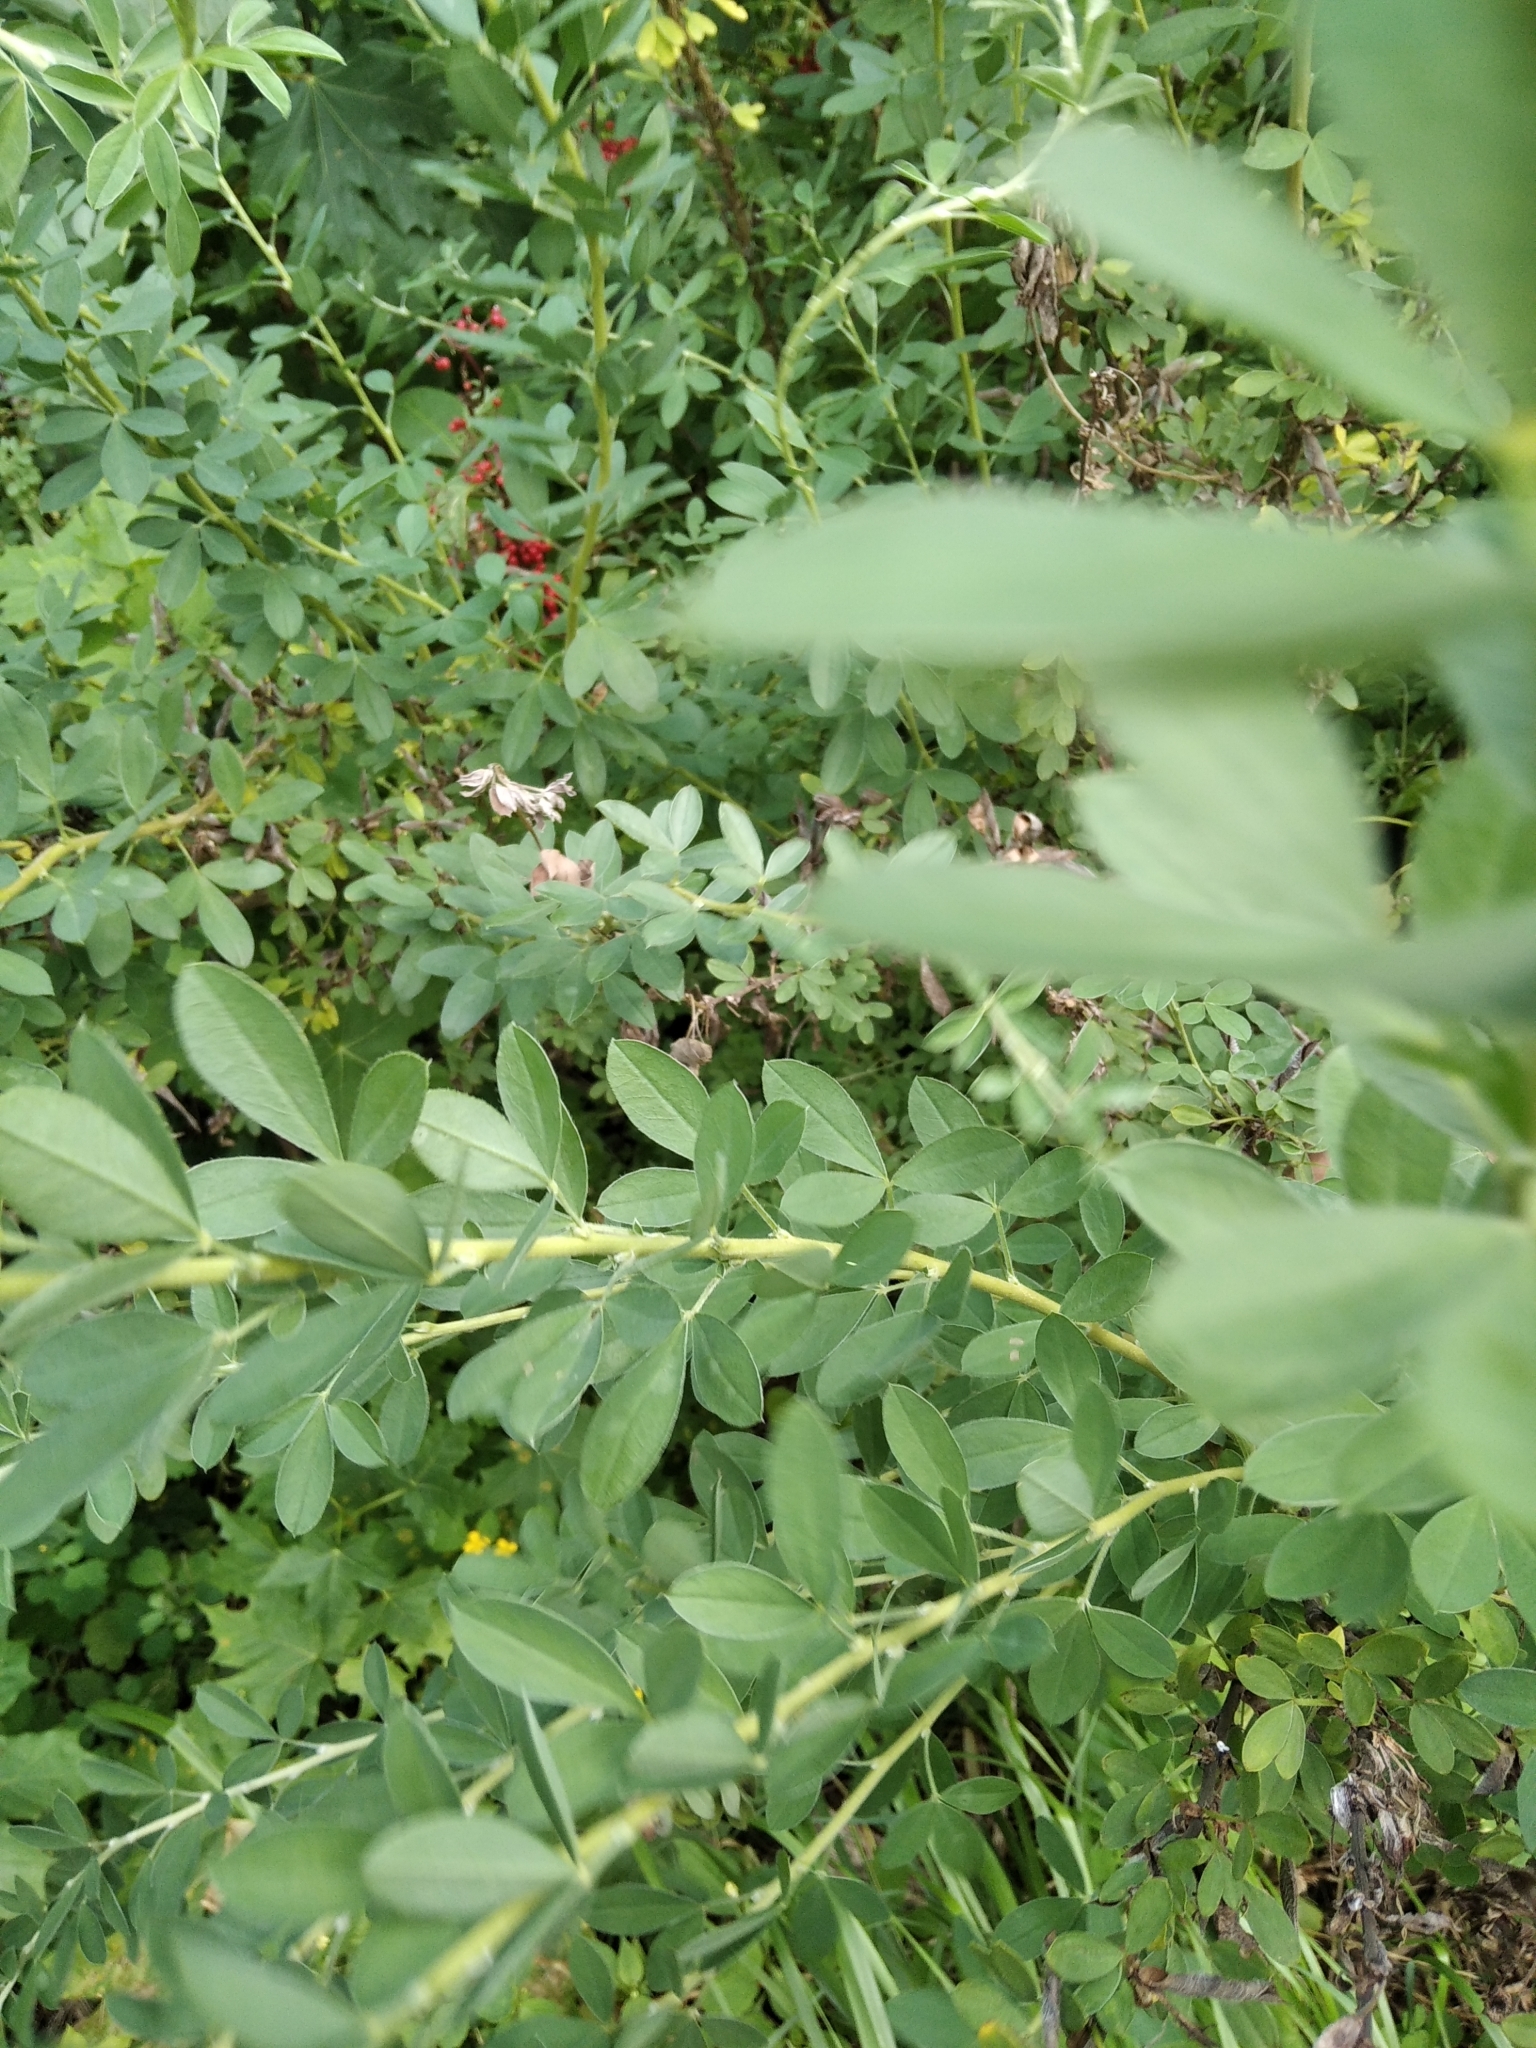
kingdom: Plantae
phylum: Tracheophyta
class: Magnoliopsida
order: Fabales
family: Fabaceae
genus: Chamaecytisus
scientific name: Chamaecytisus ruthenicus
